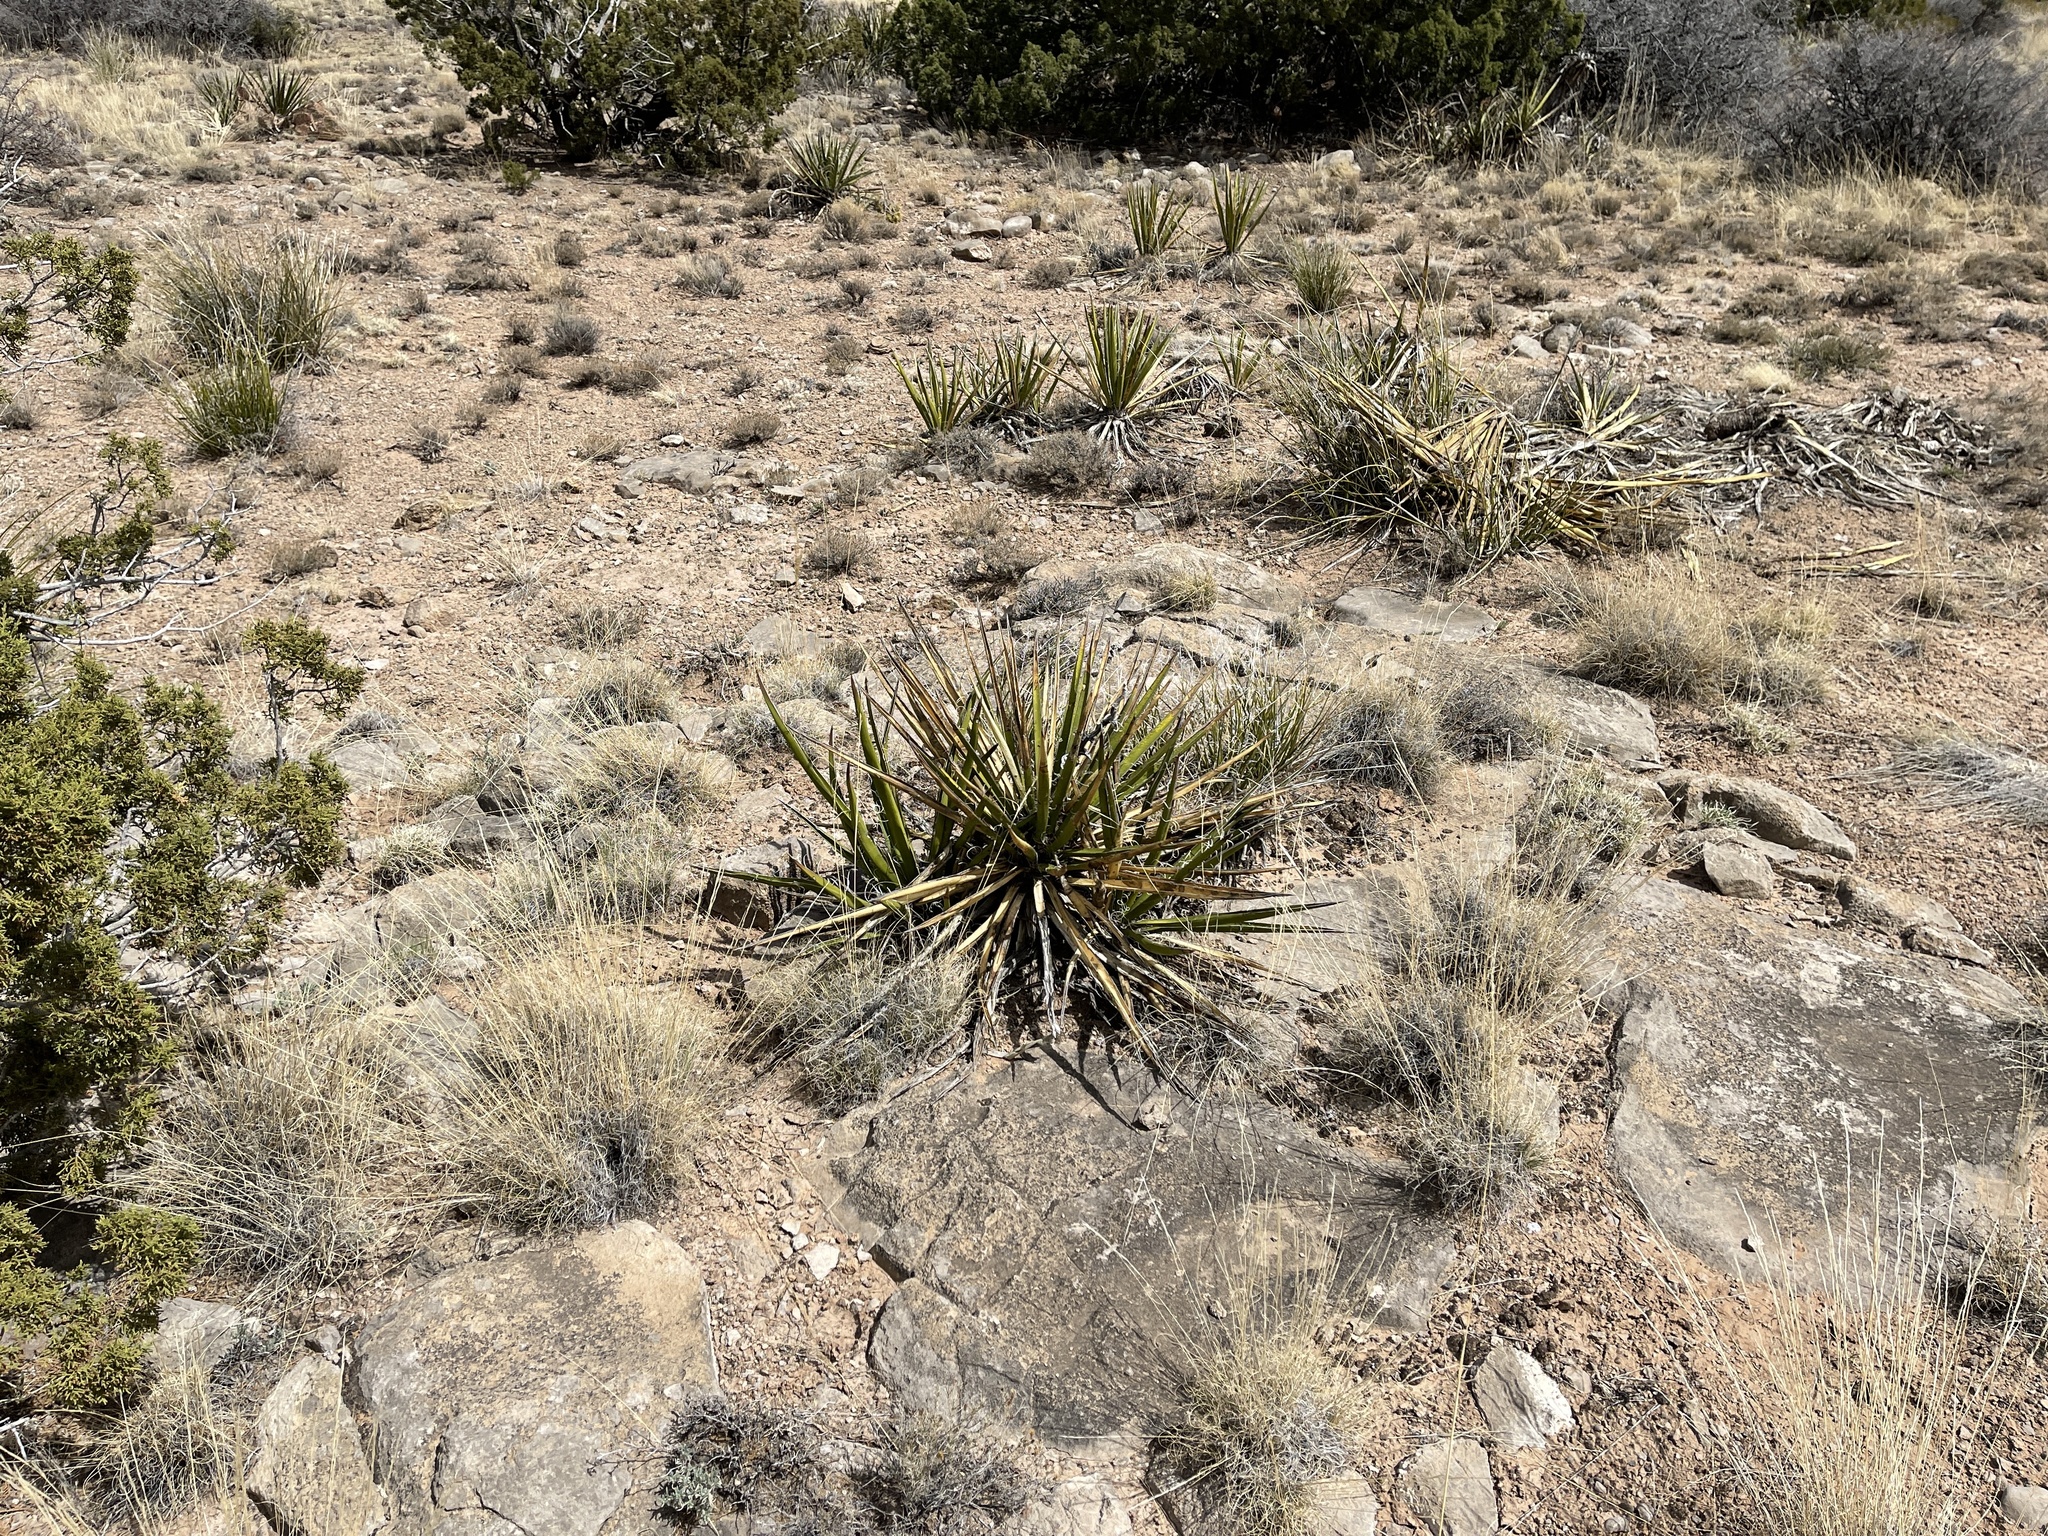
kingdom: Plantae
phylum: Tracheophyta
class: Liliopsida
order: Asparagales
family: Asparagaceae
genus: Yucca
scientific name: Yucca baccata
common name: Banana yucca
